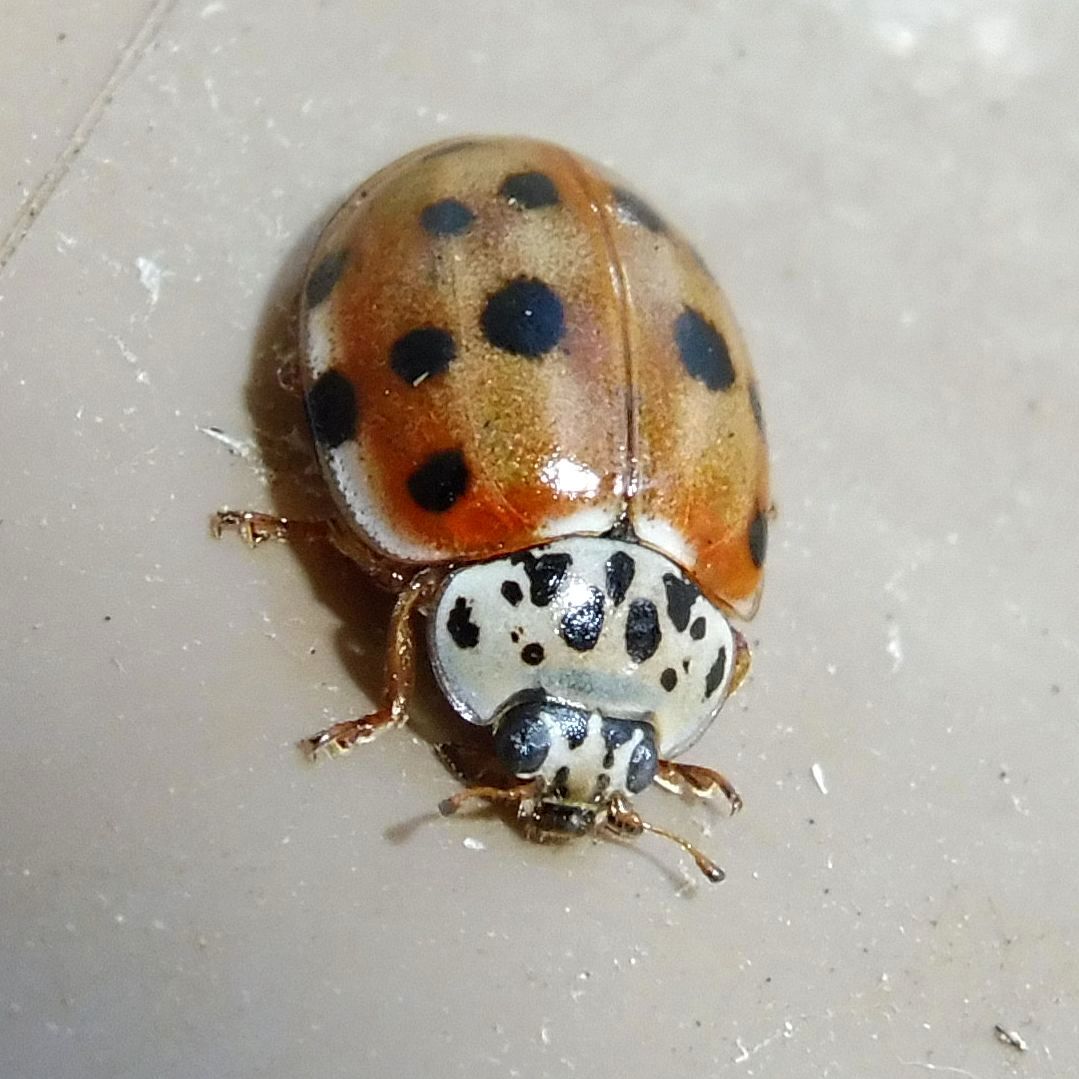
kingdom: Animalia
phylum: Arthropoda
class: Insecta
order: Coleoptera
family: Coccinellidae
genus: Harmonia
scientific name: Harmonia quadripunctata
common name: Cream-streaked ladybird
